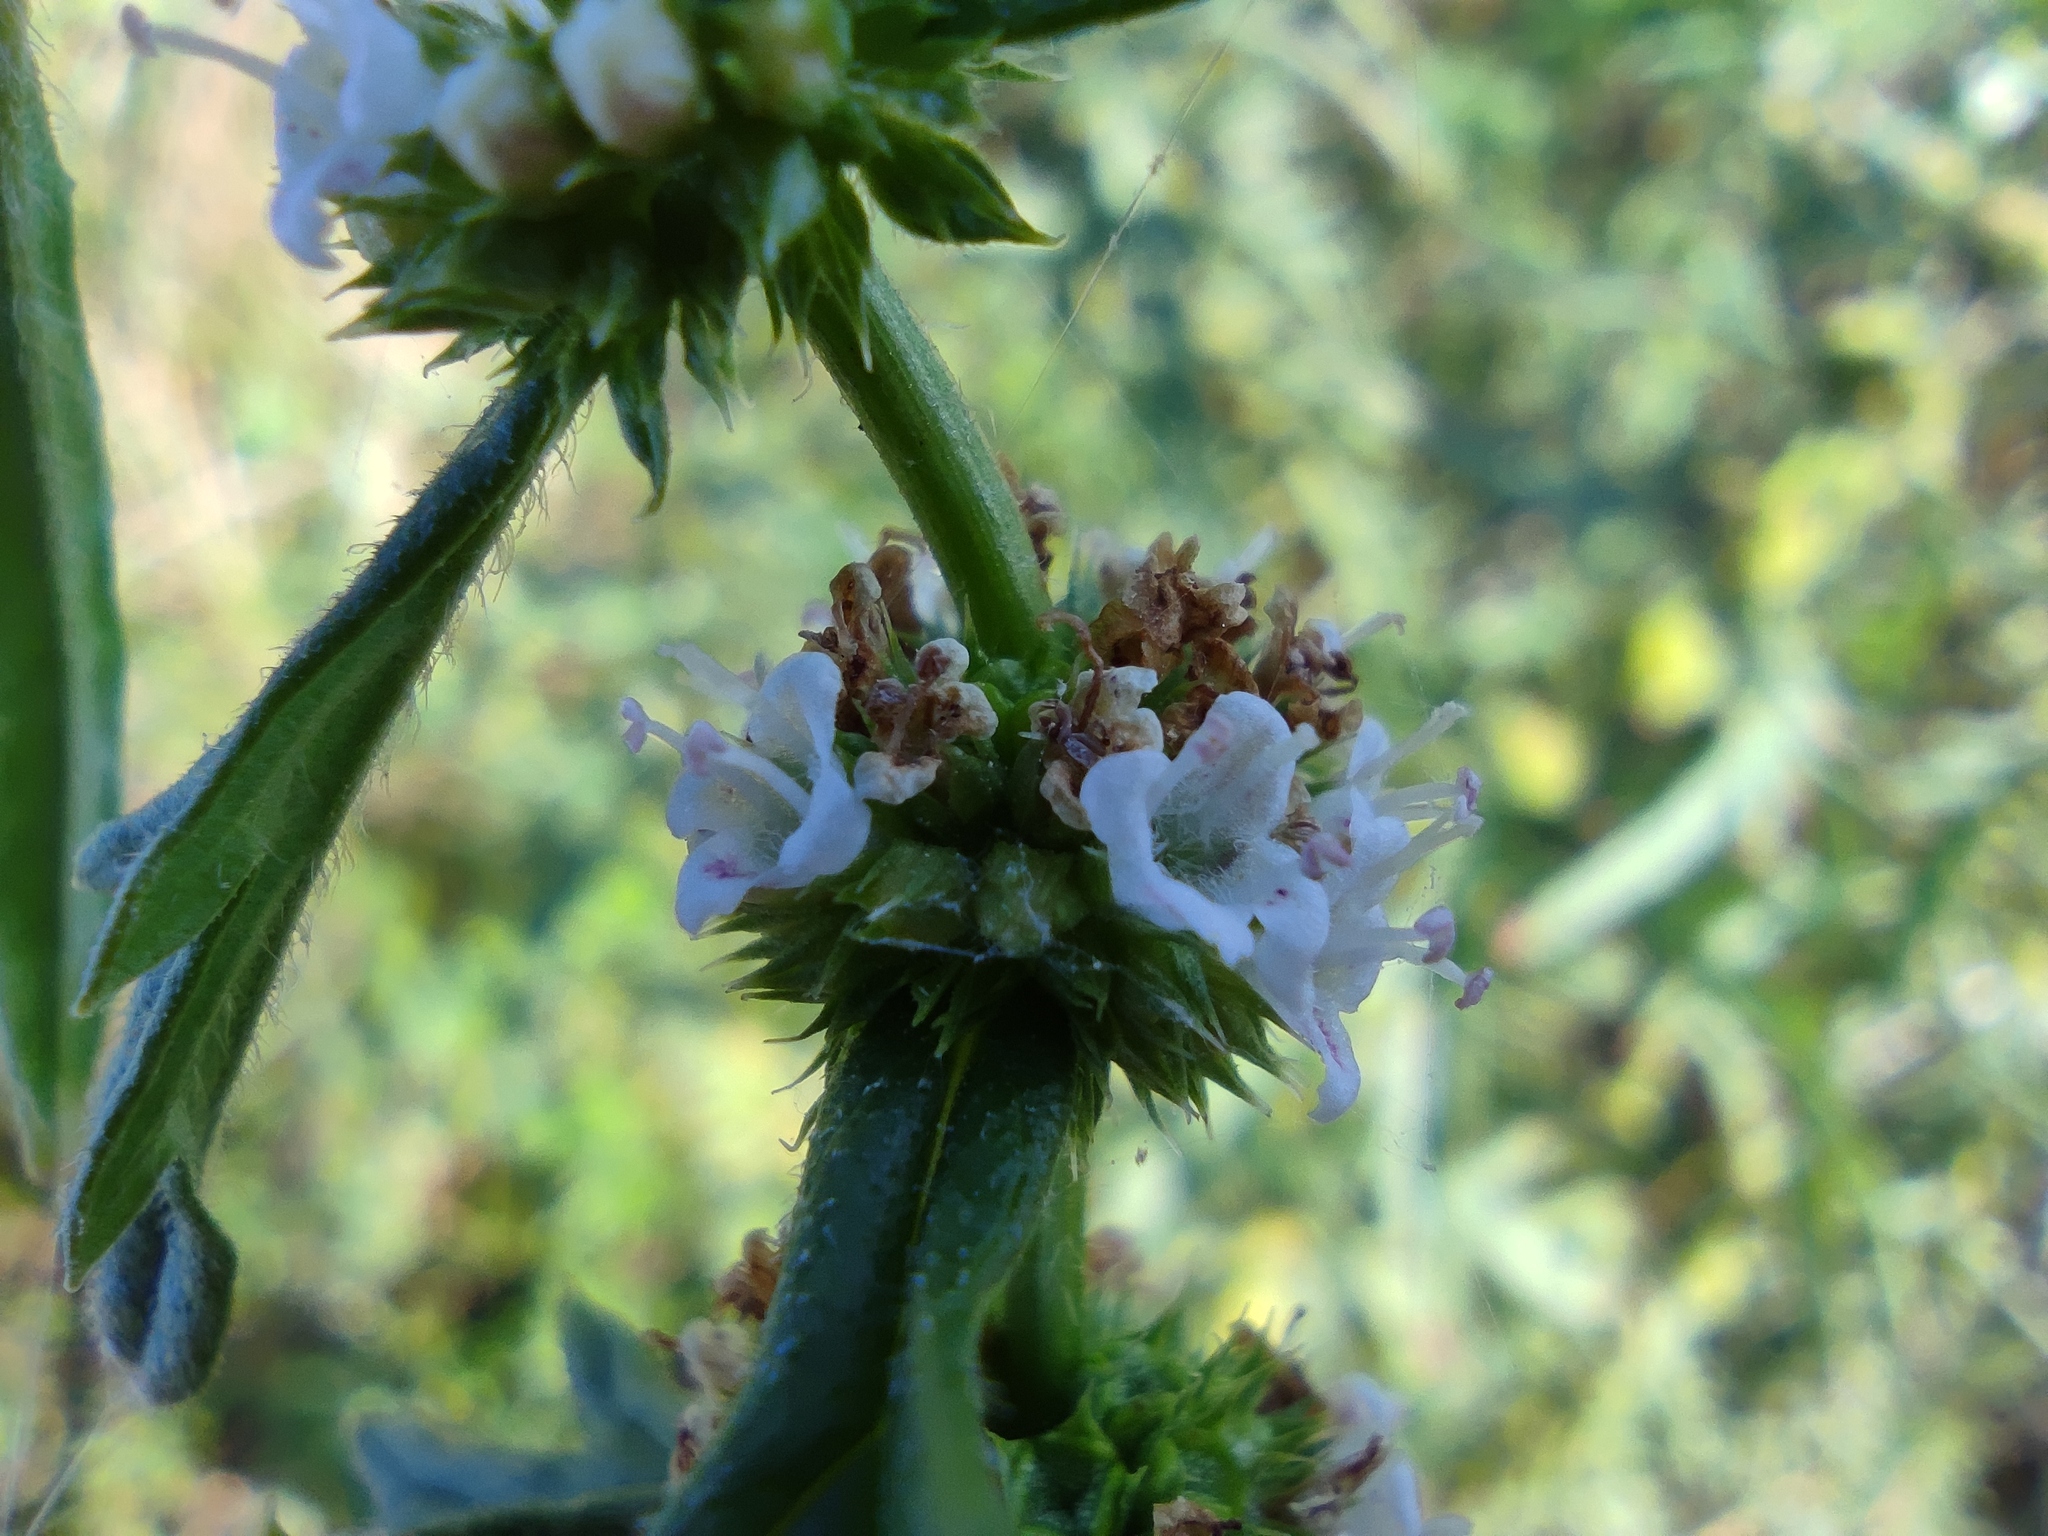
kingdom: Plantae
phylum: Tracheophyta
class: Magnoliopsida
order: Lamiales
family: Lamiaceae
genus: Lycopus
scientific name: Lycopus exaltatus
